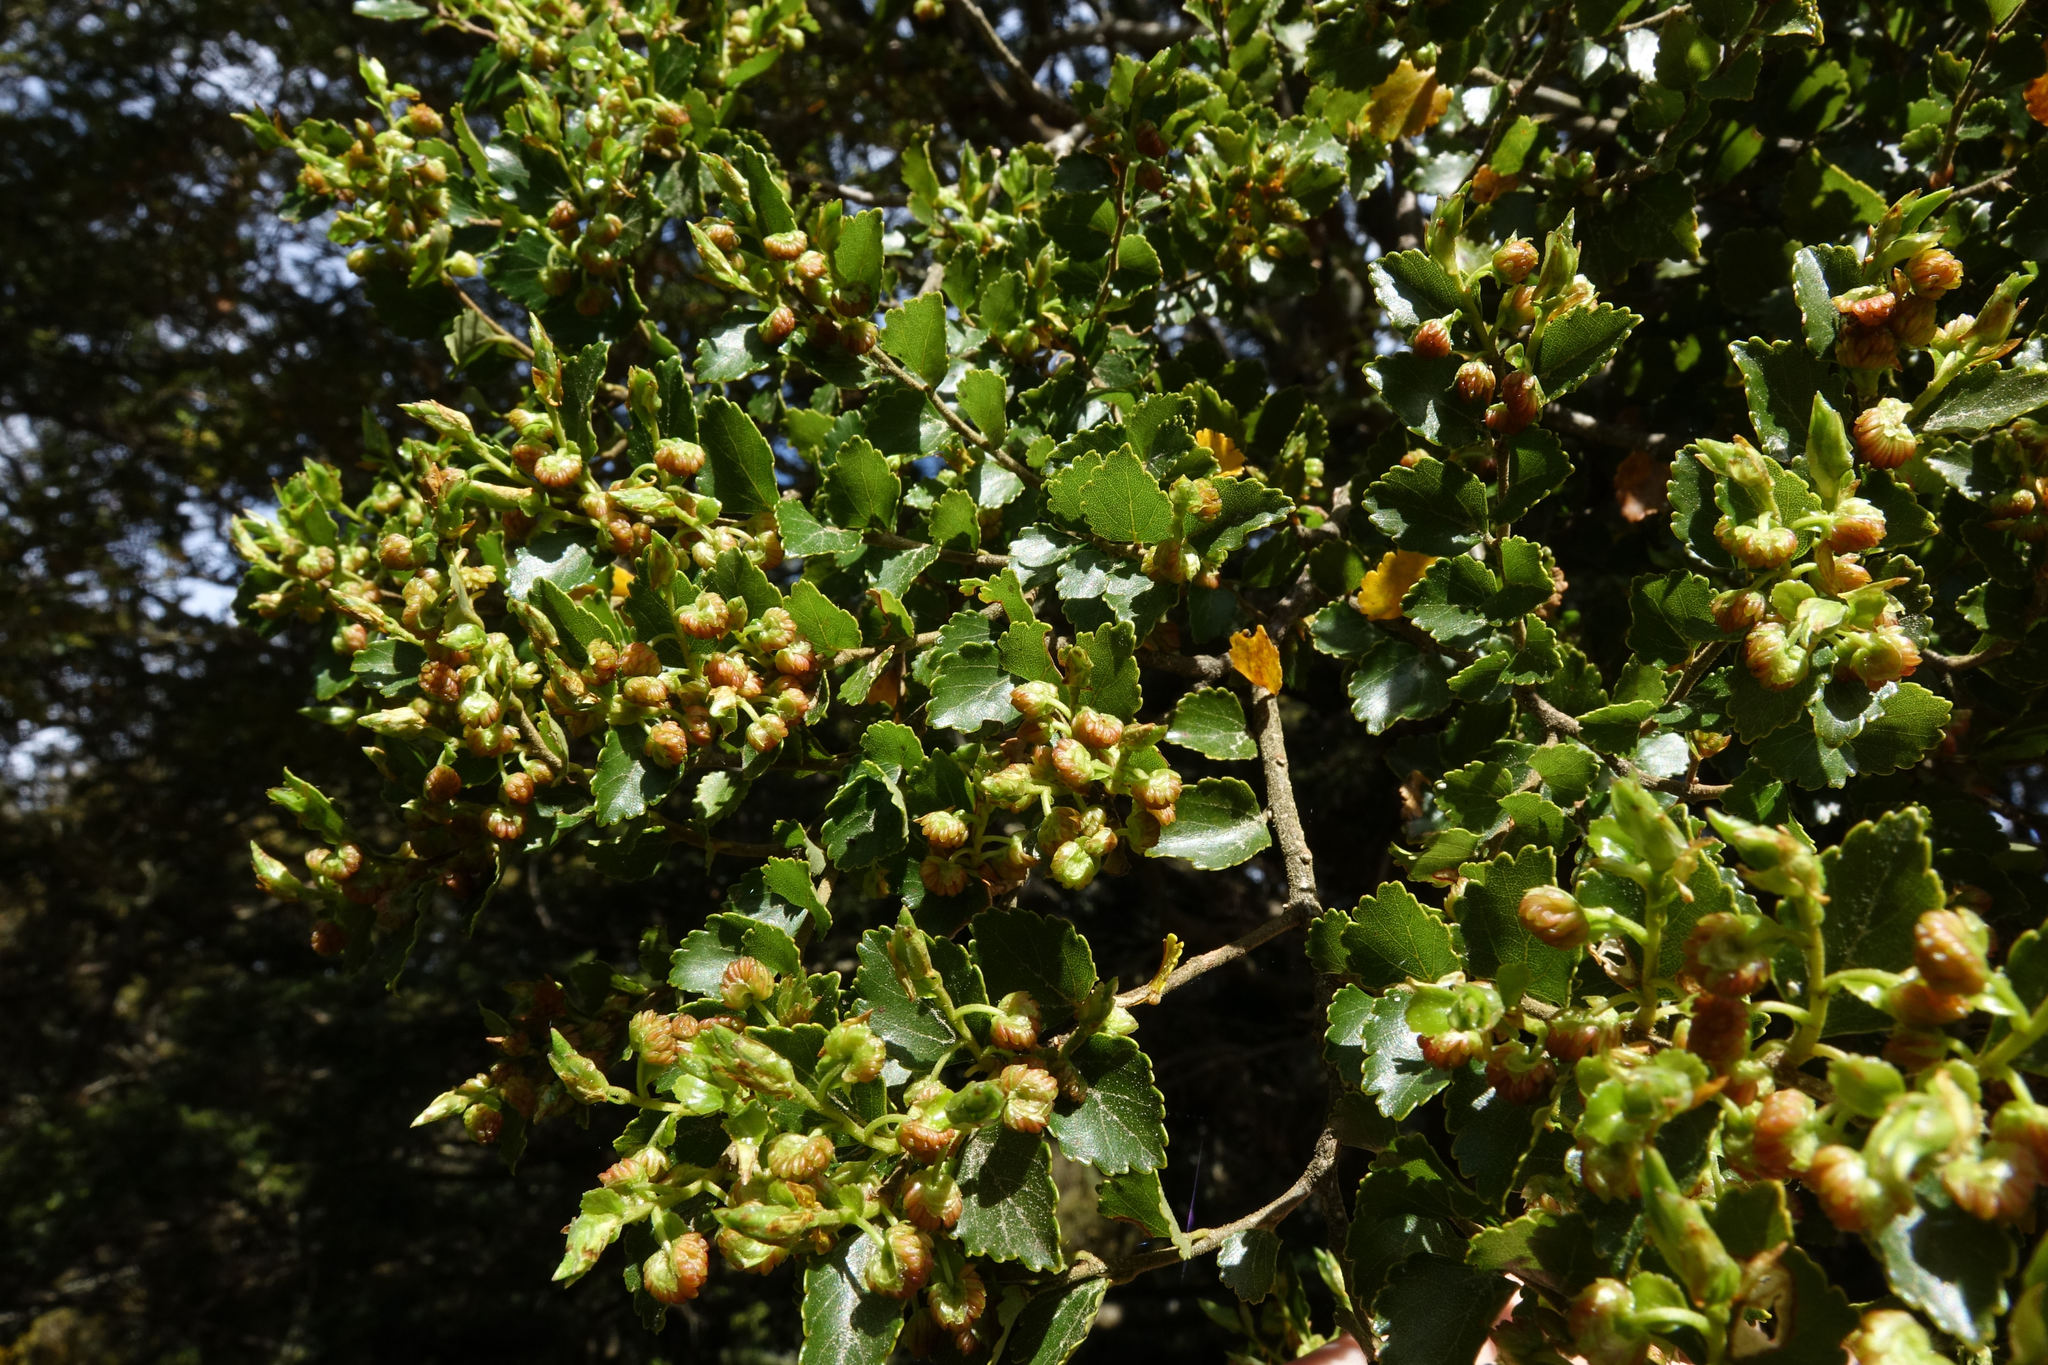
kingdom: Plantae
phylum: Tracheophyta
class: Magnoliopsida
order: Fagales
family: Nothofagaceae
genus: Nothofagus
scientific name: Nothofagus menziesii
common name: Silver beech
